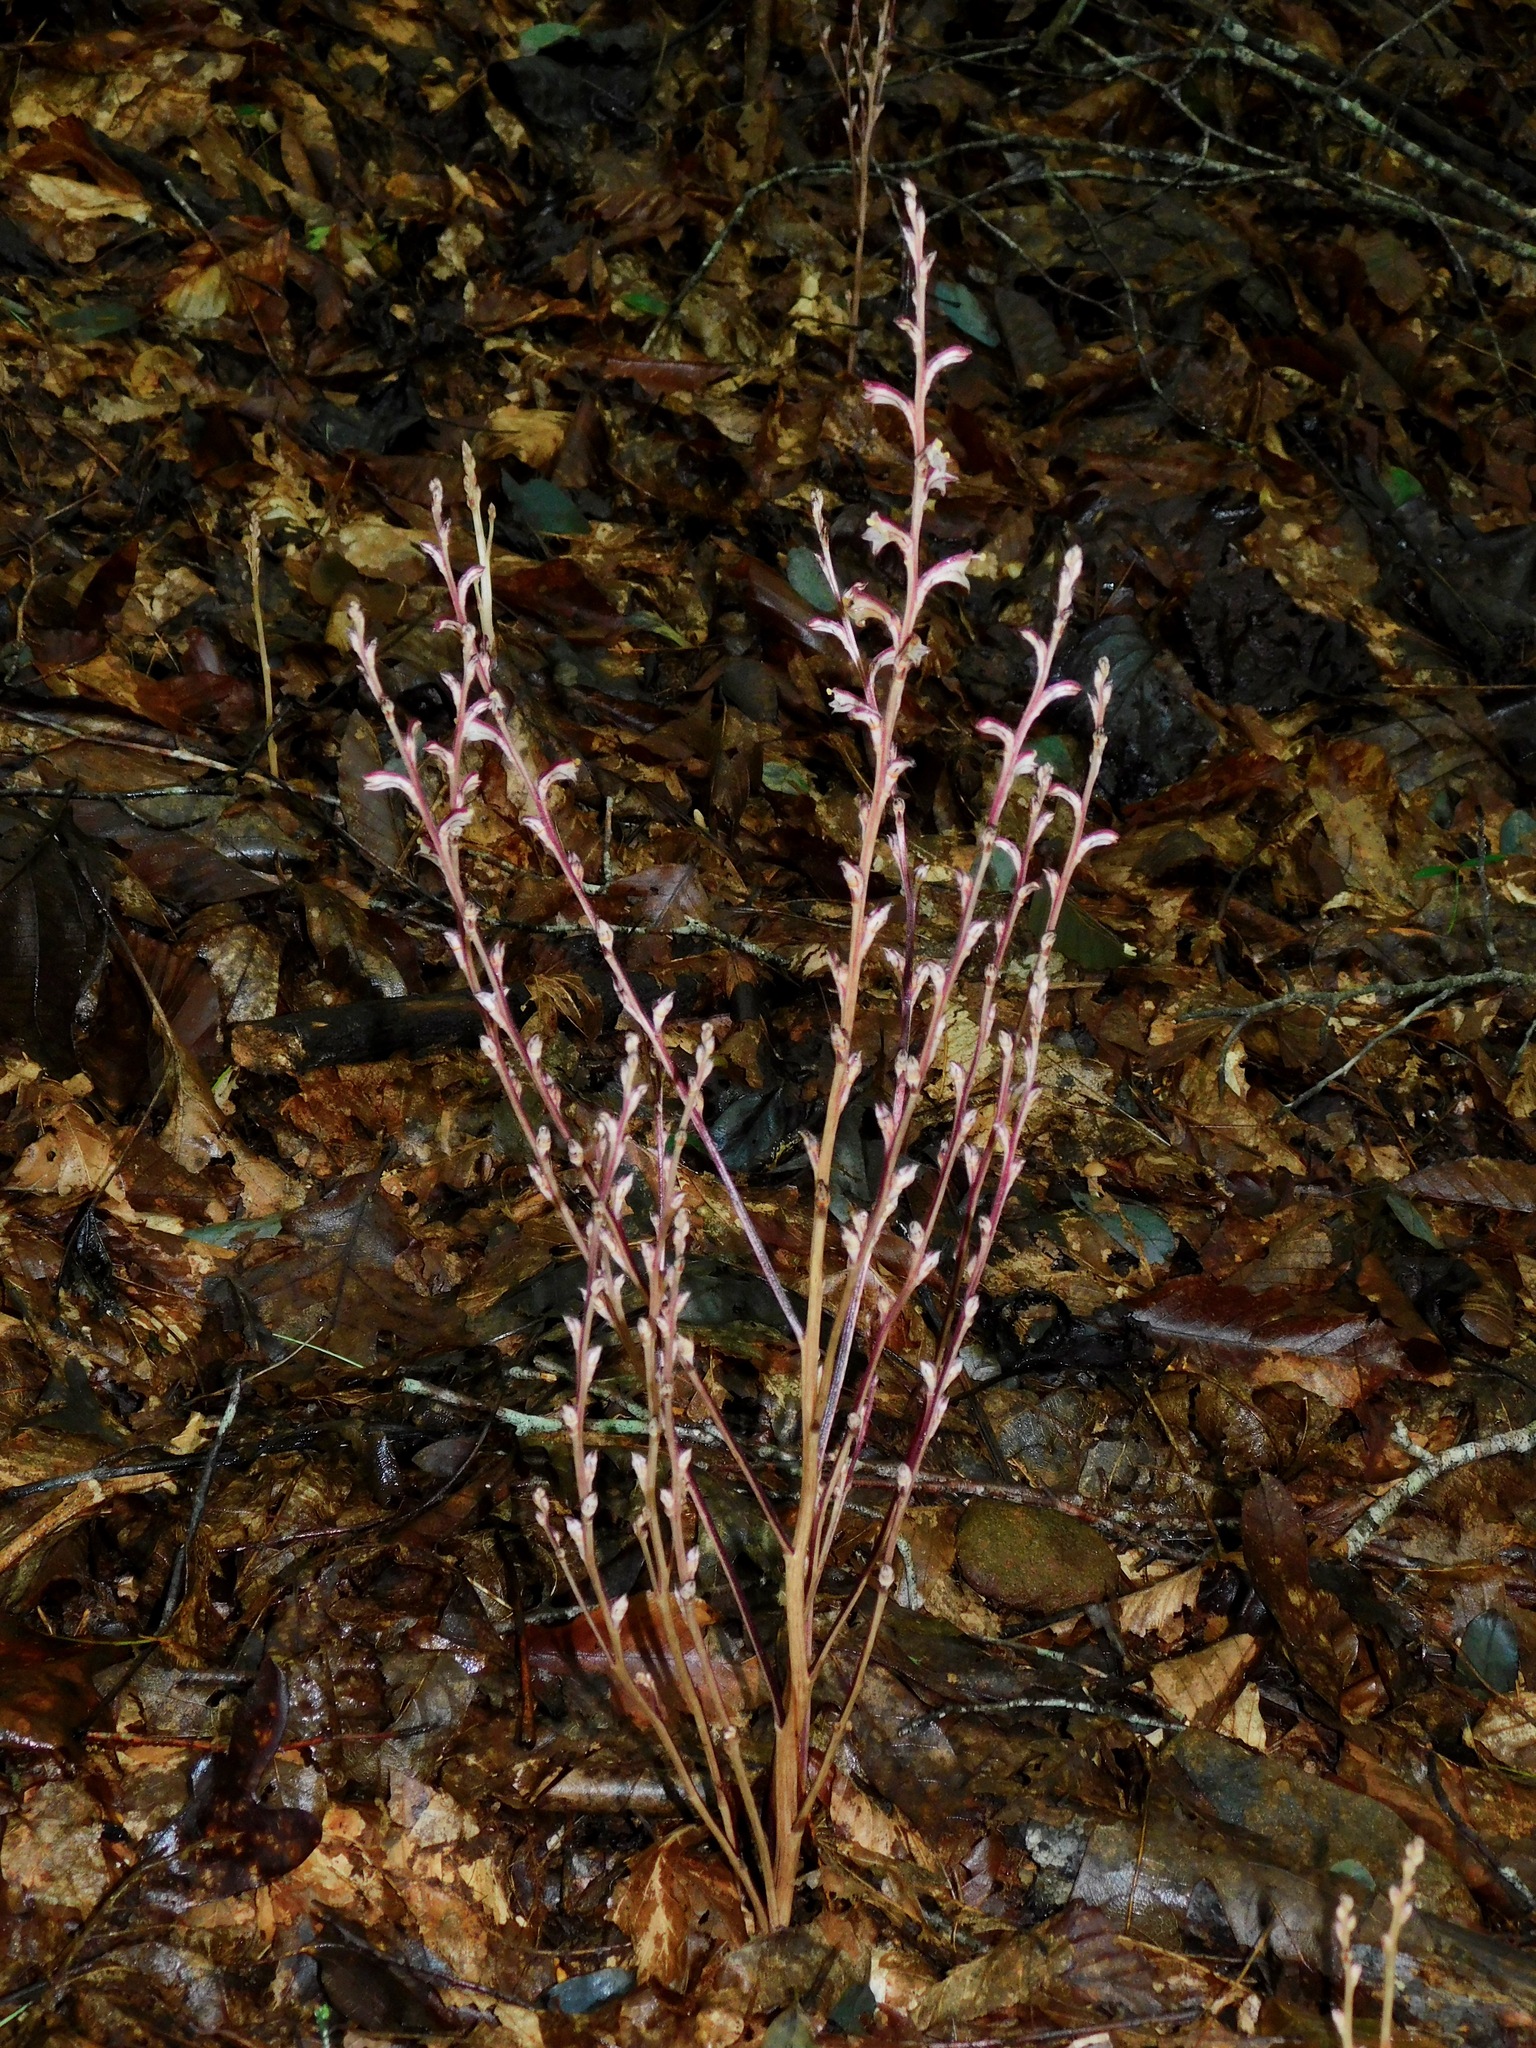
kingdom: Plantae
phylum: Tracheophyta
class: Magnoliopsida
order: Lamiales
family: Orobanchaceae
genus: Epifagus
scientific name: Epifagus virginiana
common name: Beechdrops
